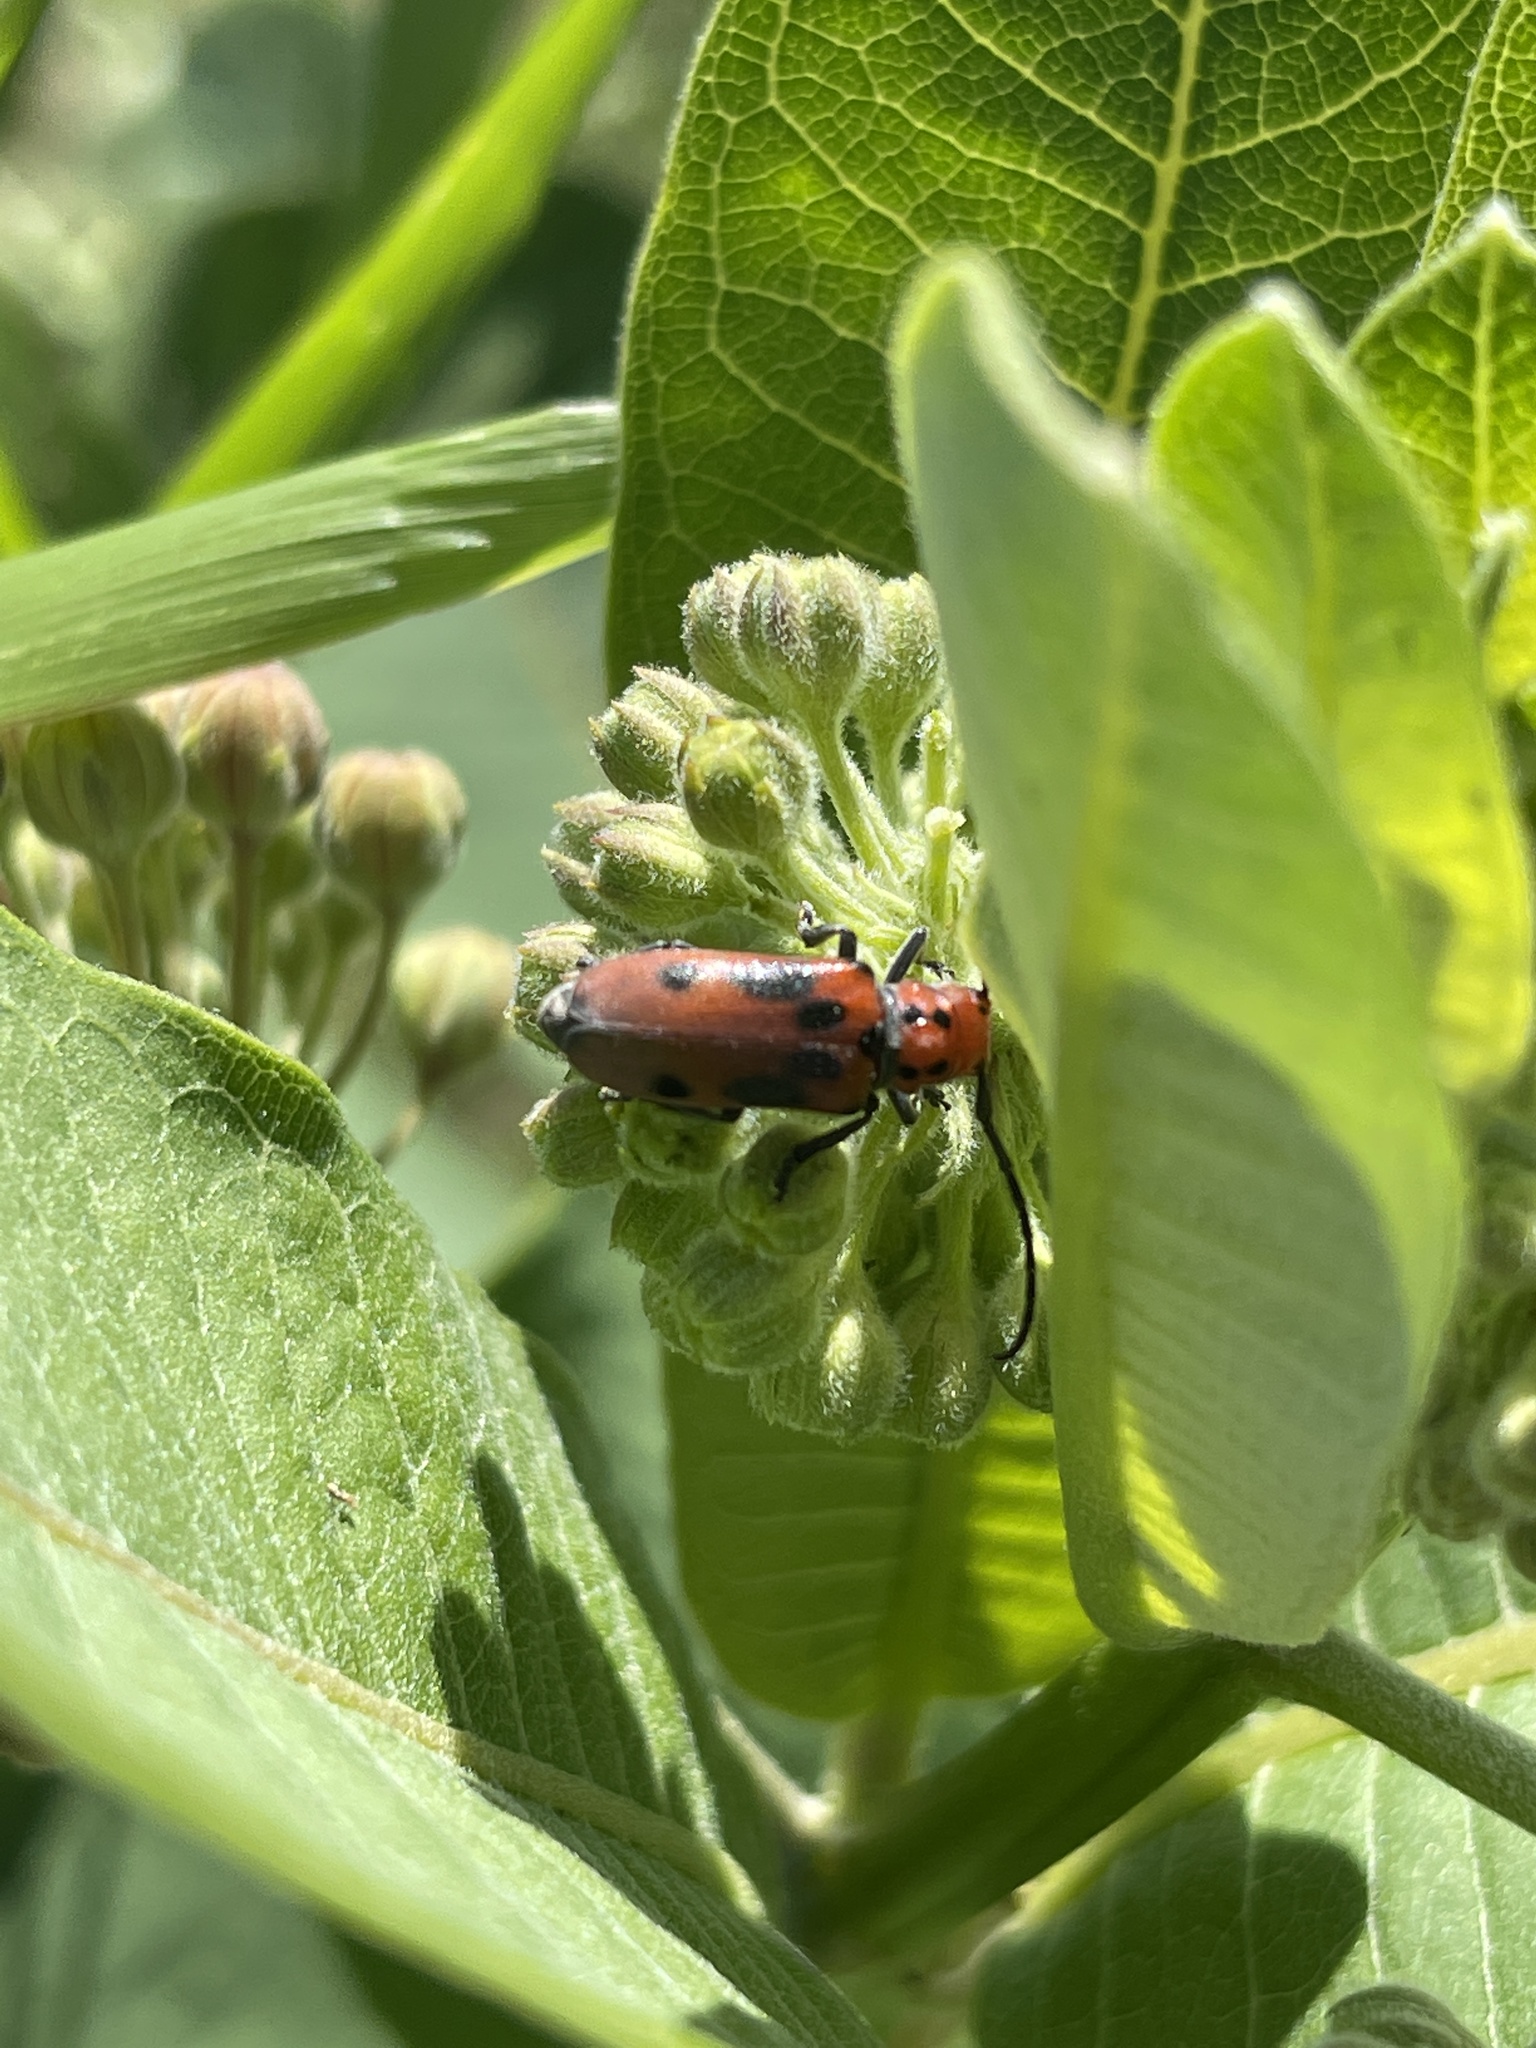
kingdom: Animalia
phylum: Arthropoda
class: Insecta
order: Coleoptera
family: Cerambycidae
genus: Tetraopes
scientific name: Tetraopes tetrophthalmus
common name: Red milkweed beetle
